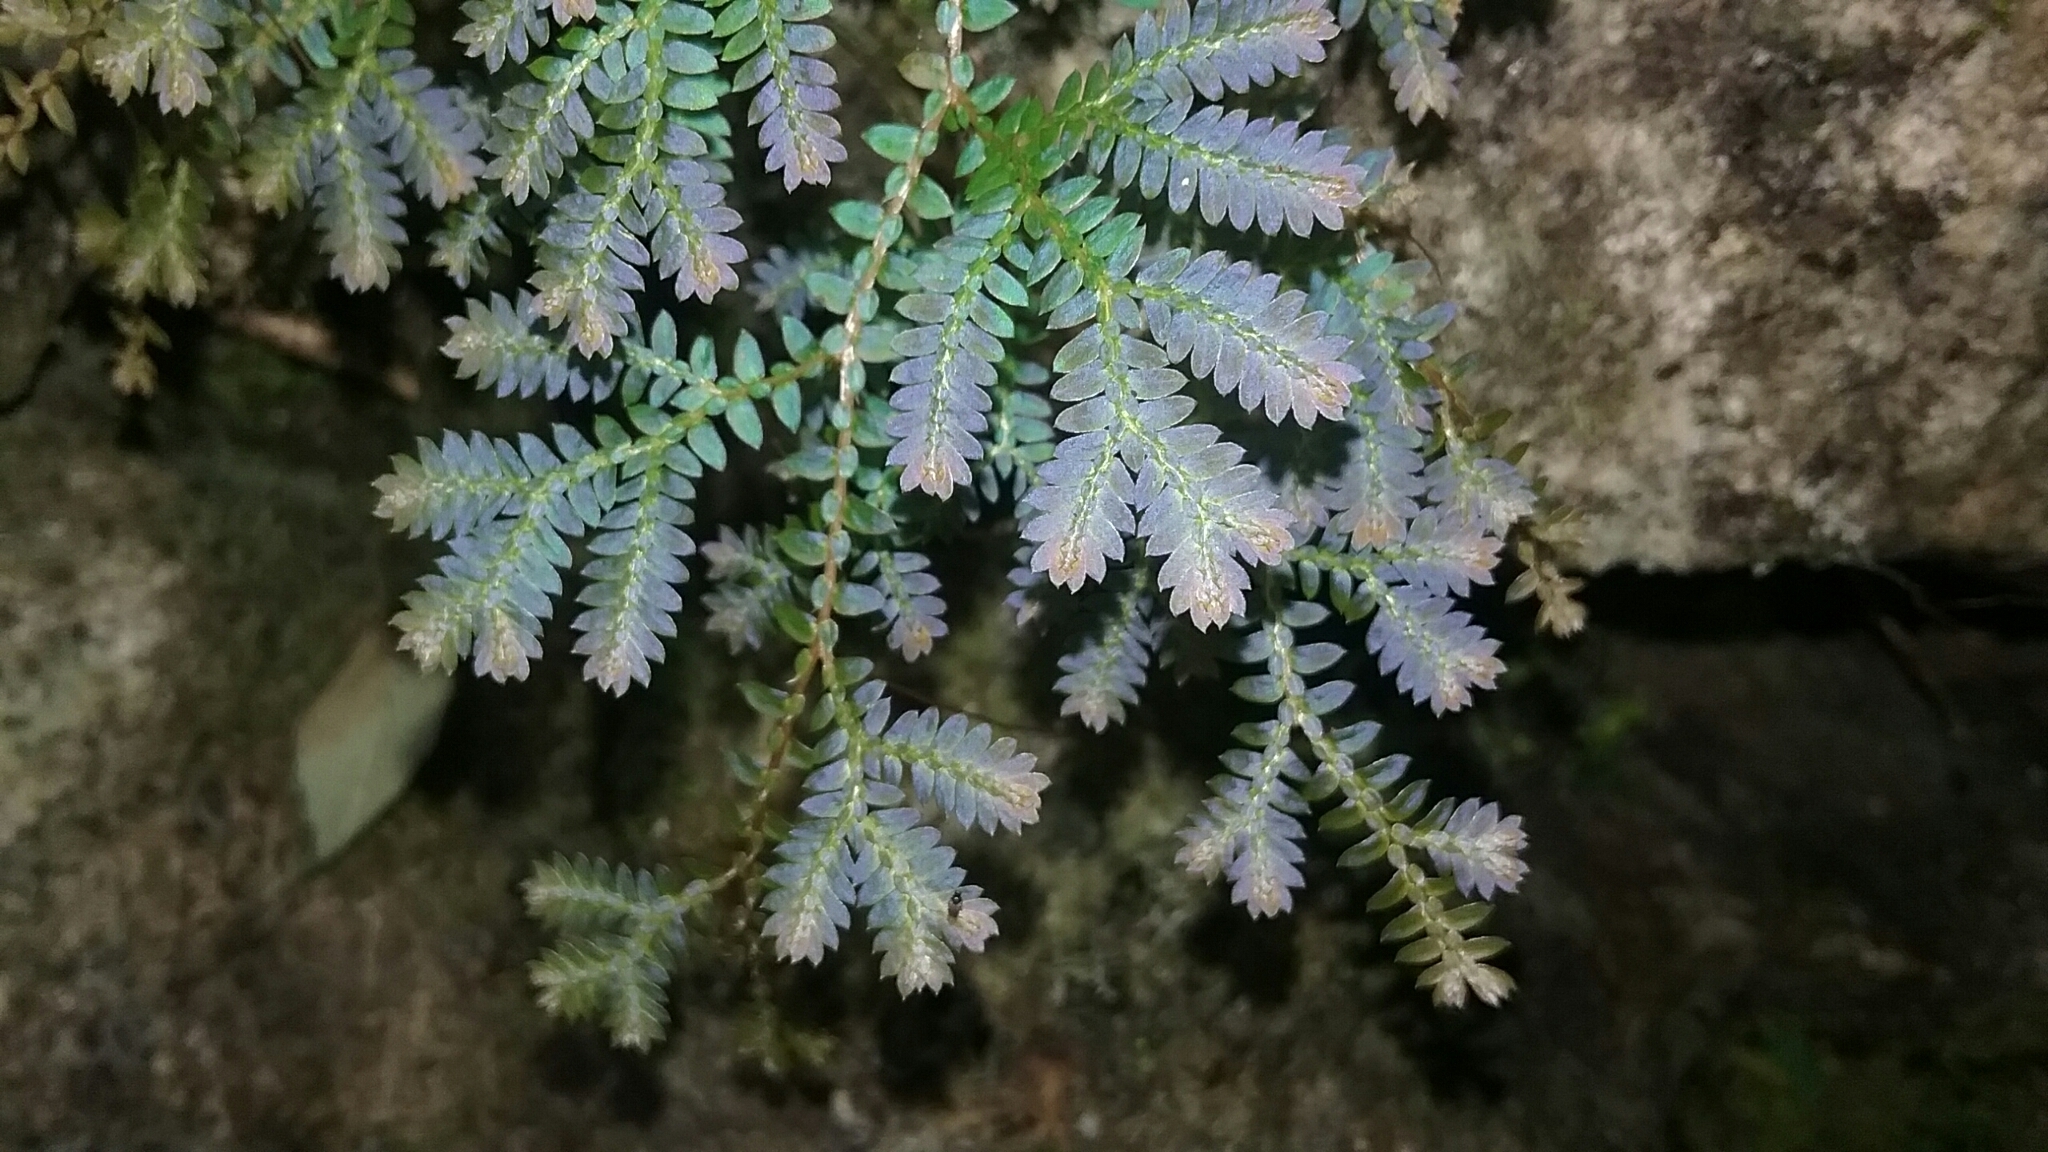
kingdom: Plantae
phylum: Tracheophyta
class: Lycopodiopsida
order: Selaginellales
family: Selaginellaceae
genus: Selaginella
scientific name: Selaginella uncinata
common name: Blue spikemoss
